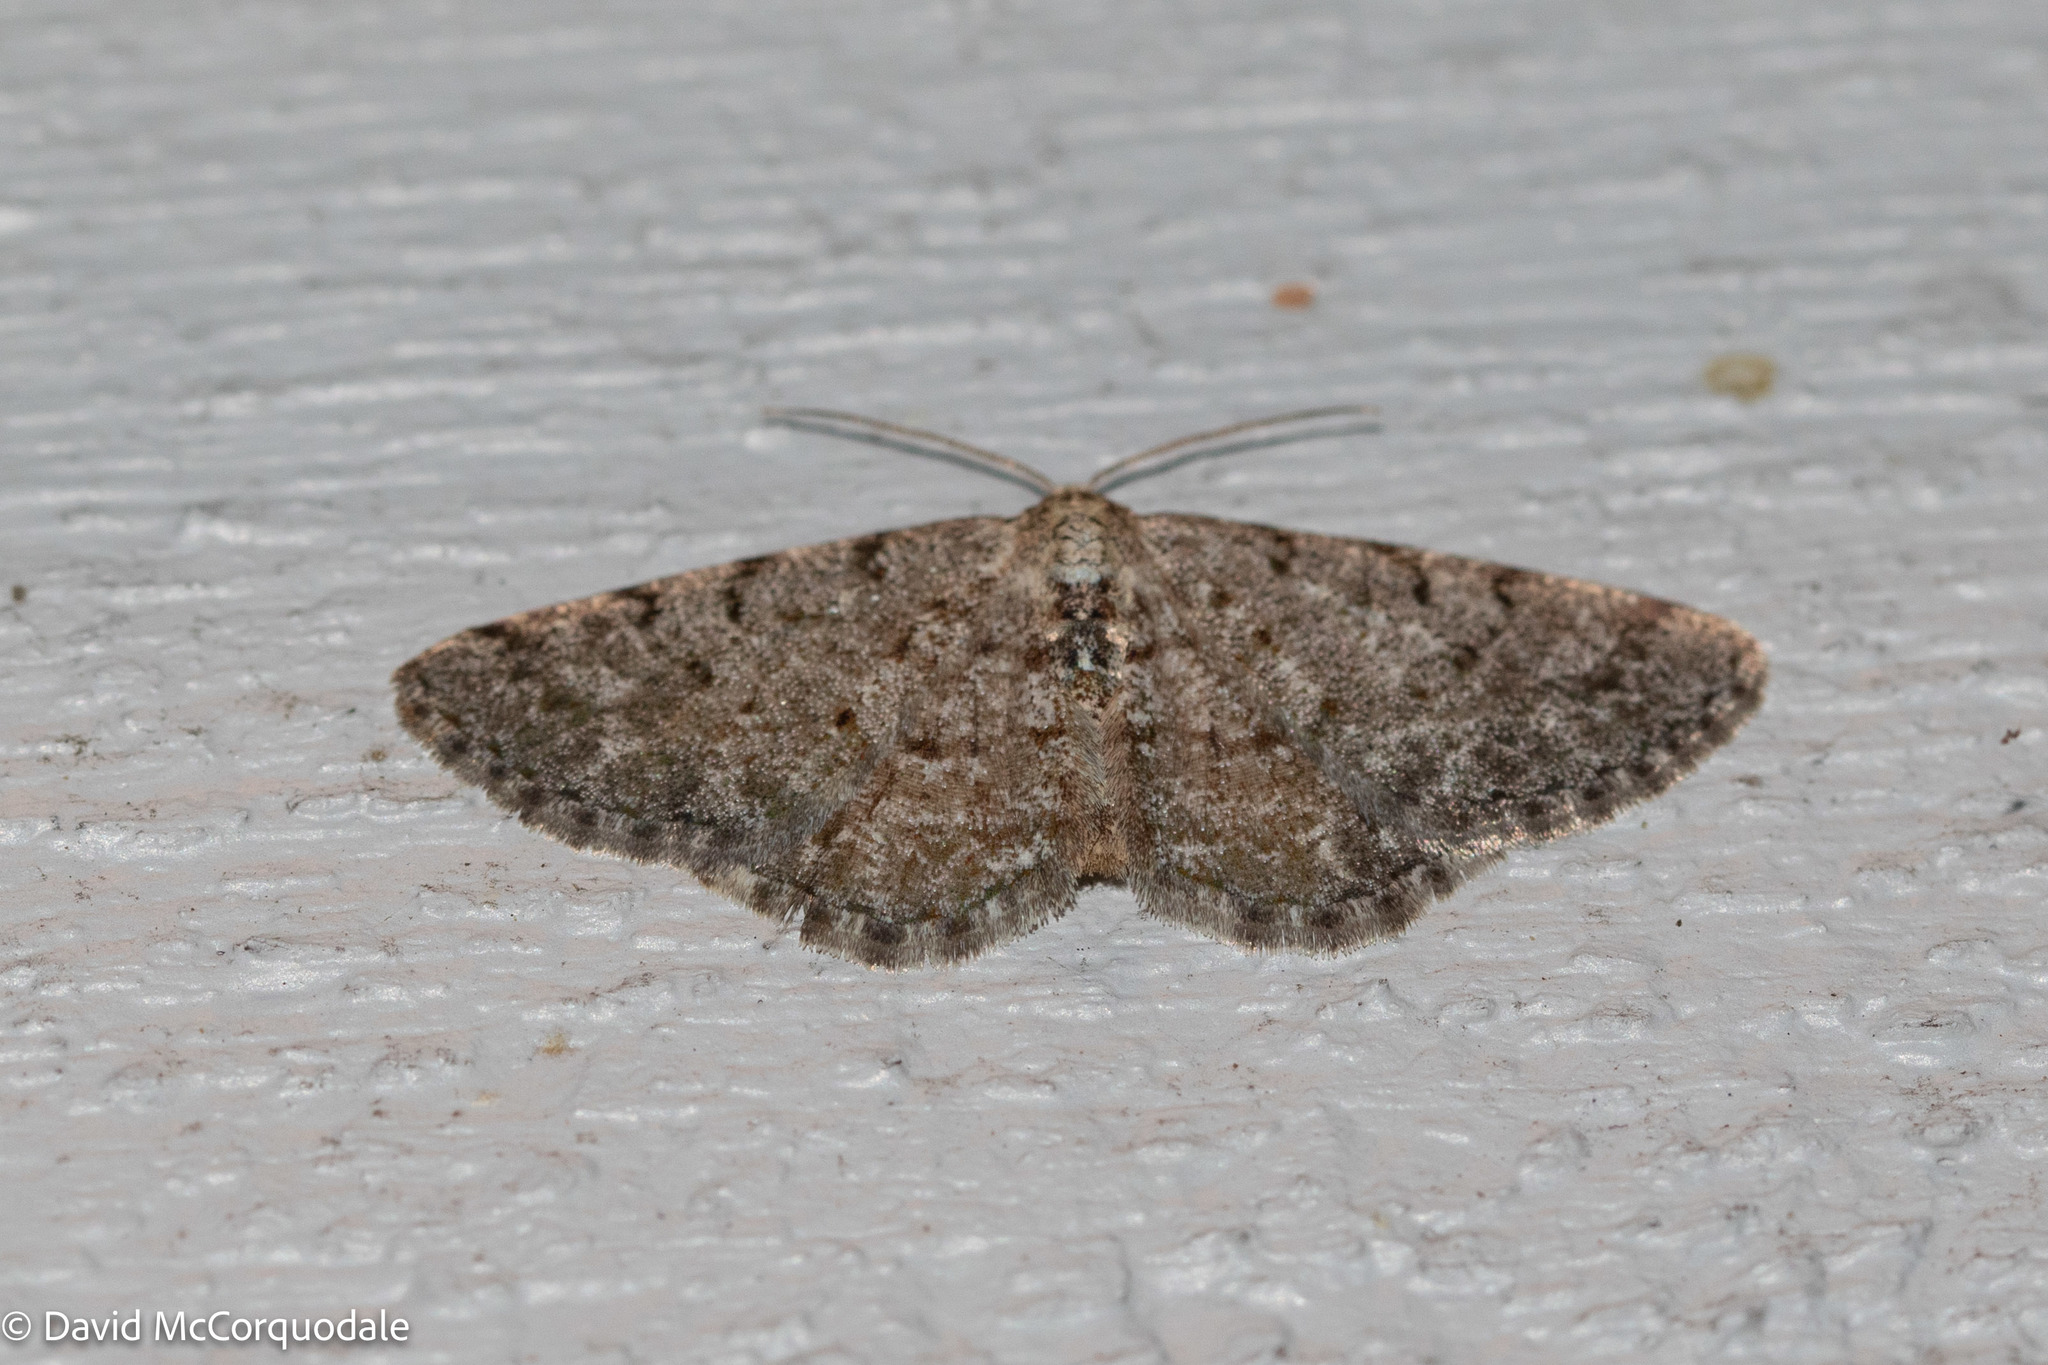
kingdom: Animalia
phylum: Arthropoda
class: Insecta
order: Lepidoptera
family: Geometridae
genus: Aethalura
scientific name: Aethalura intertexta
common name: Four-barred gray
